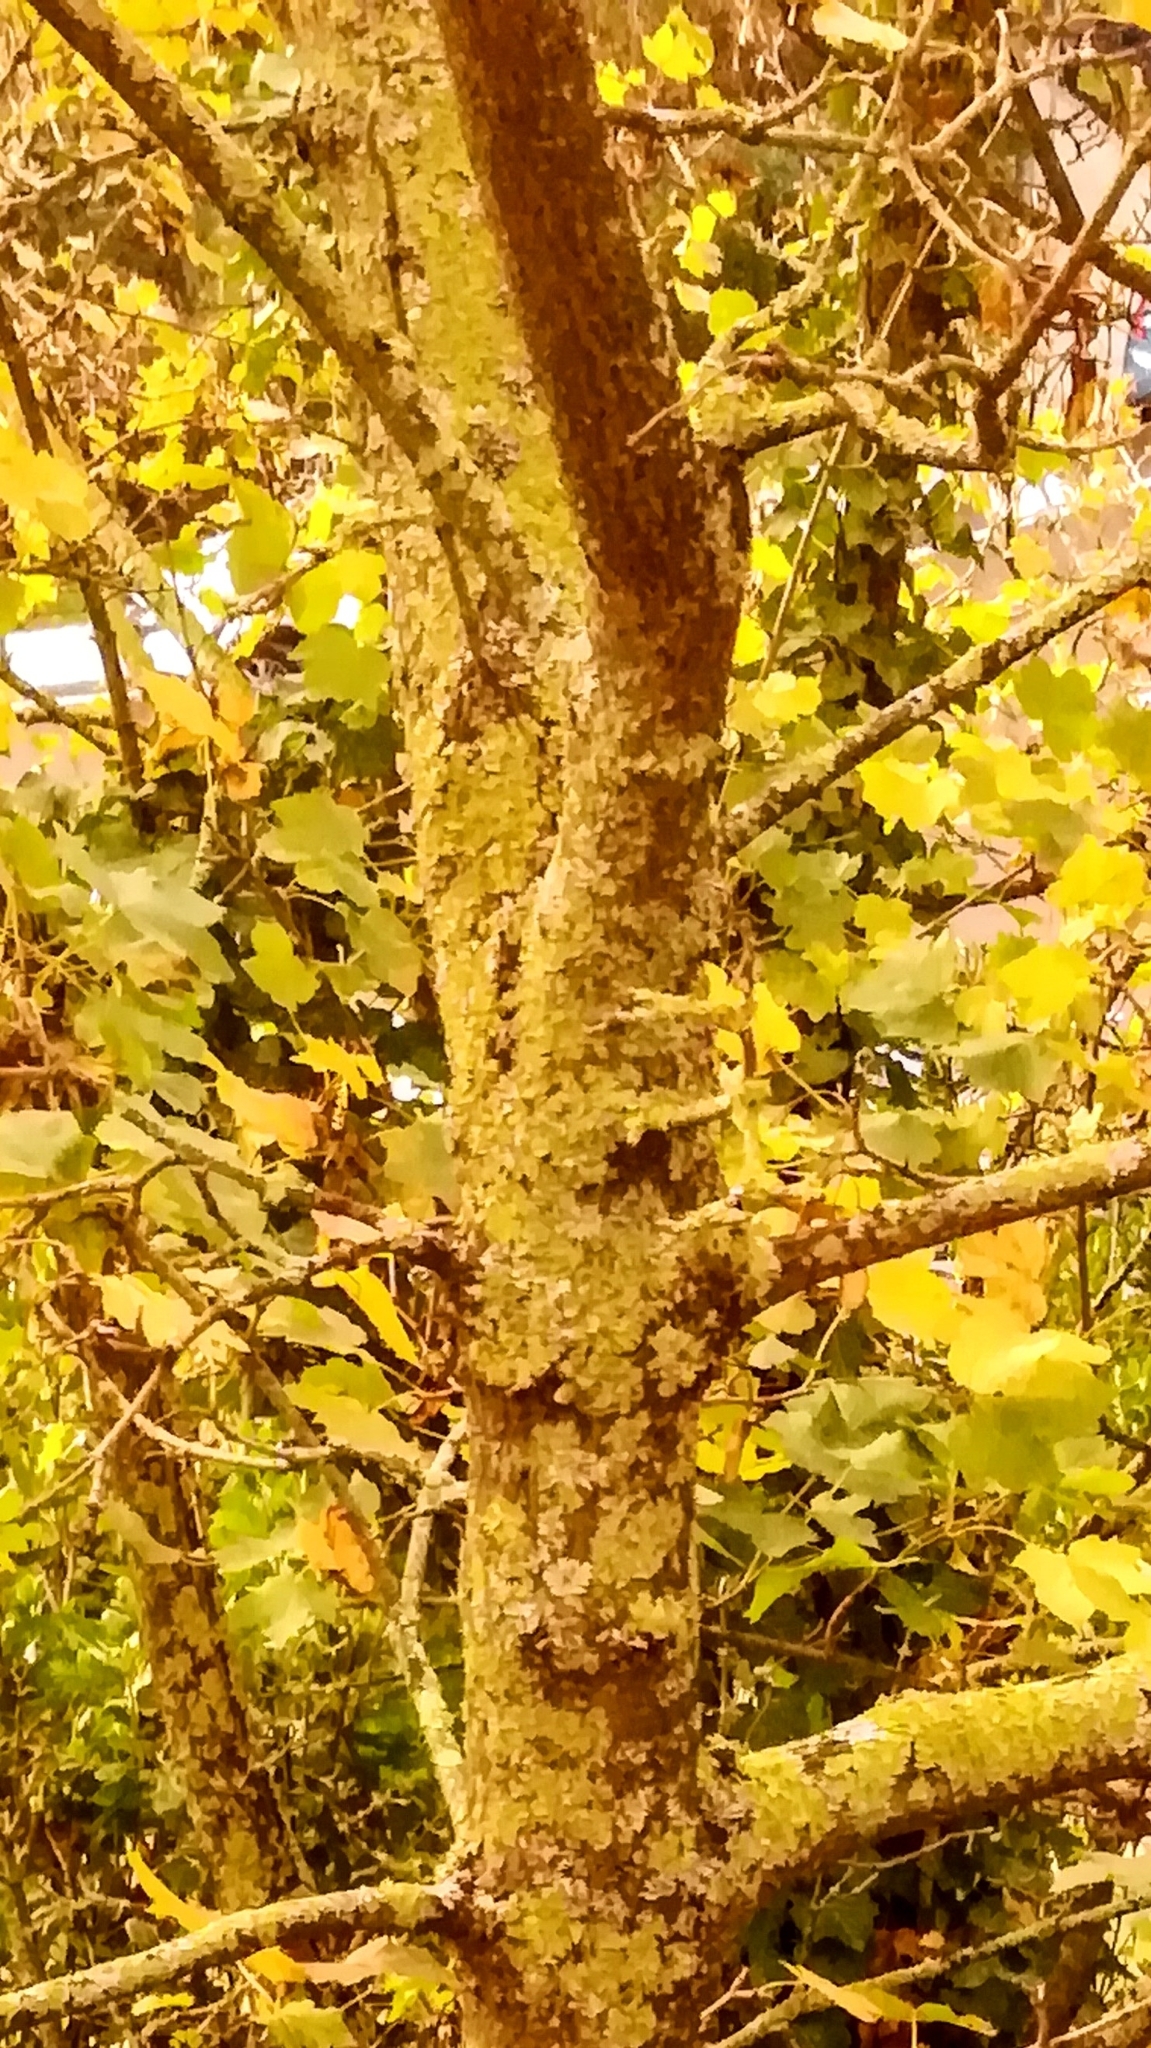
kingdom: Fungi
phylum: Ascomycota
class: Lecanoromycetes
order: Teloschistales
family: Teloschistaceae
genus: Xanthoria
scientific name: Xanthoria parietina
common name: Common orange lichen
